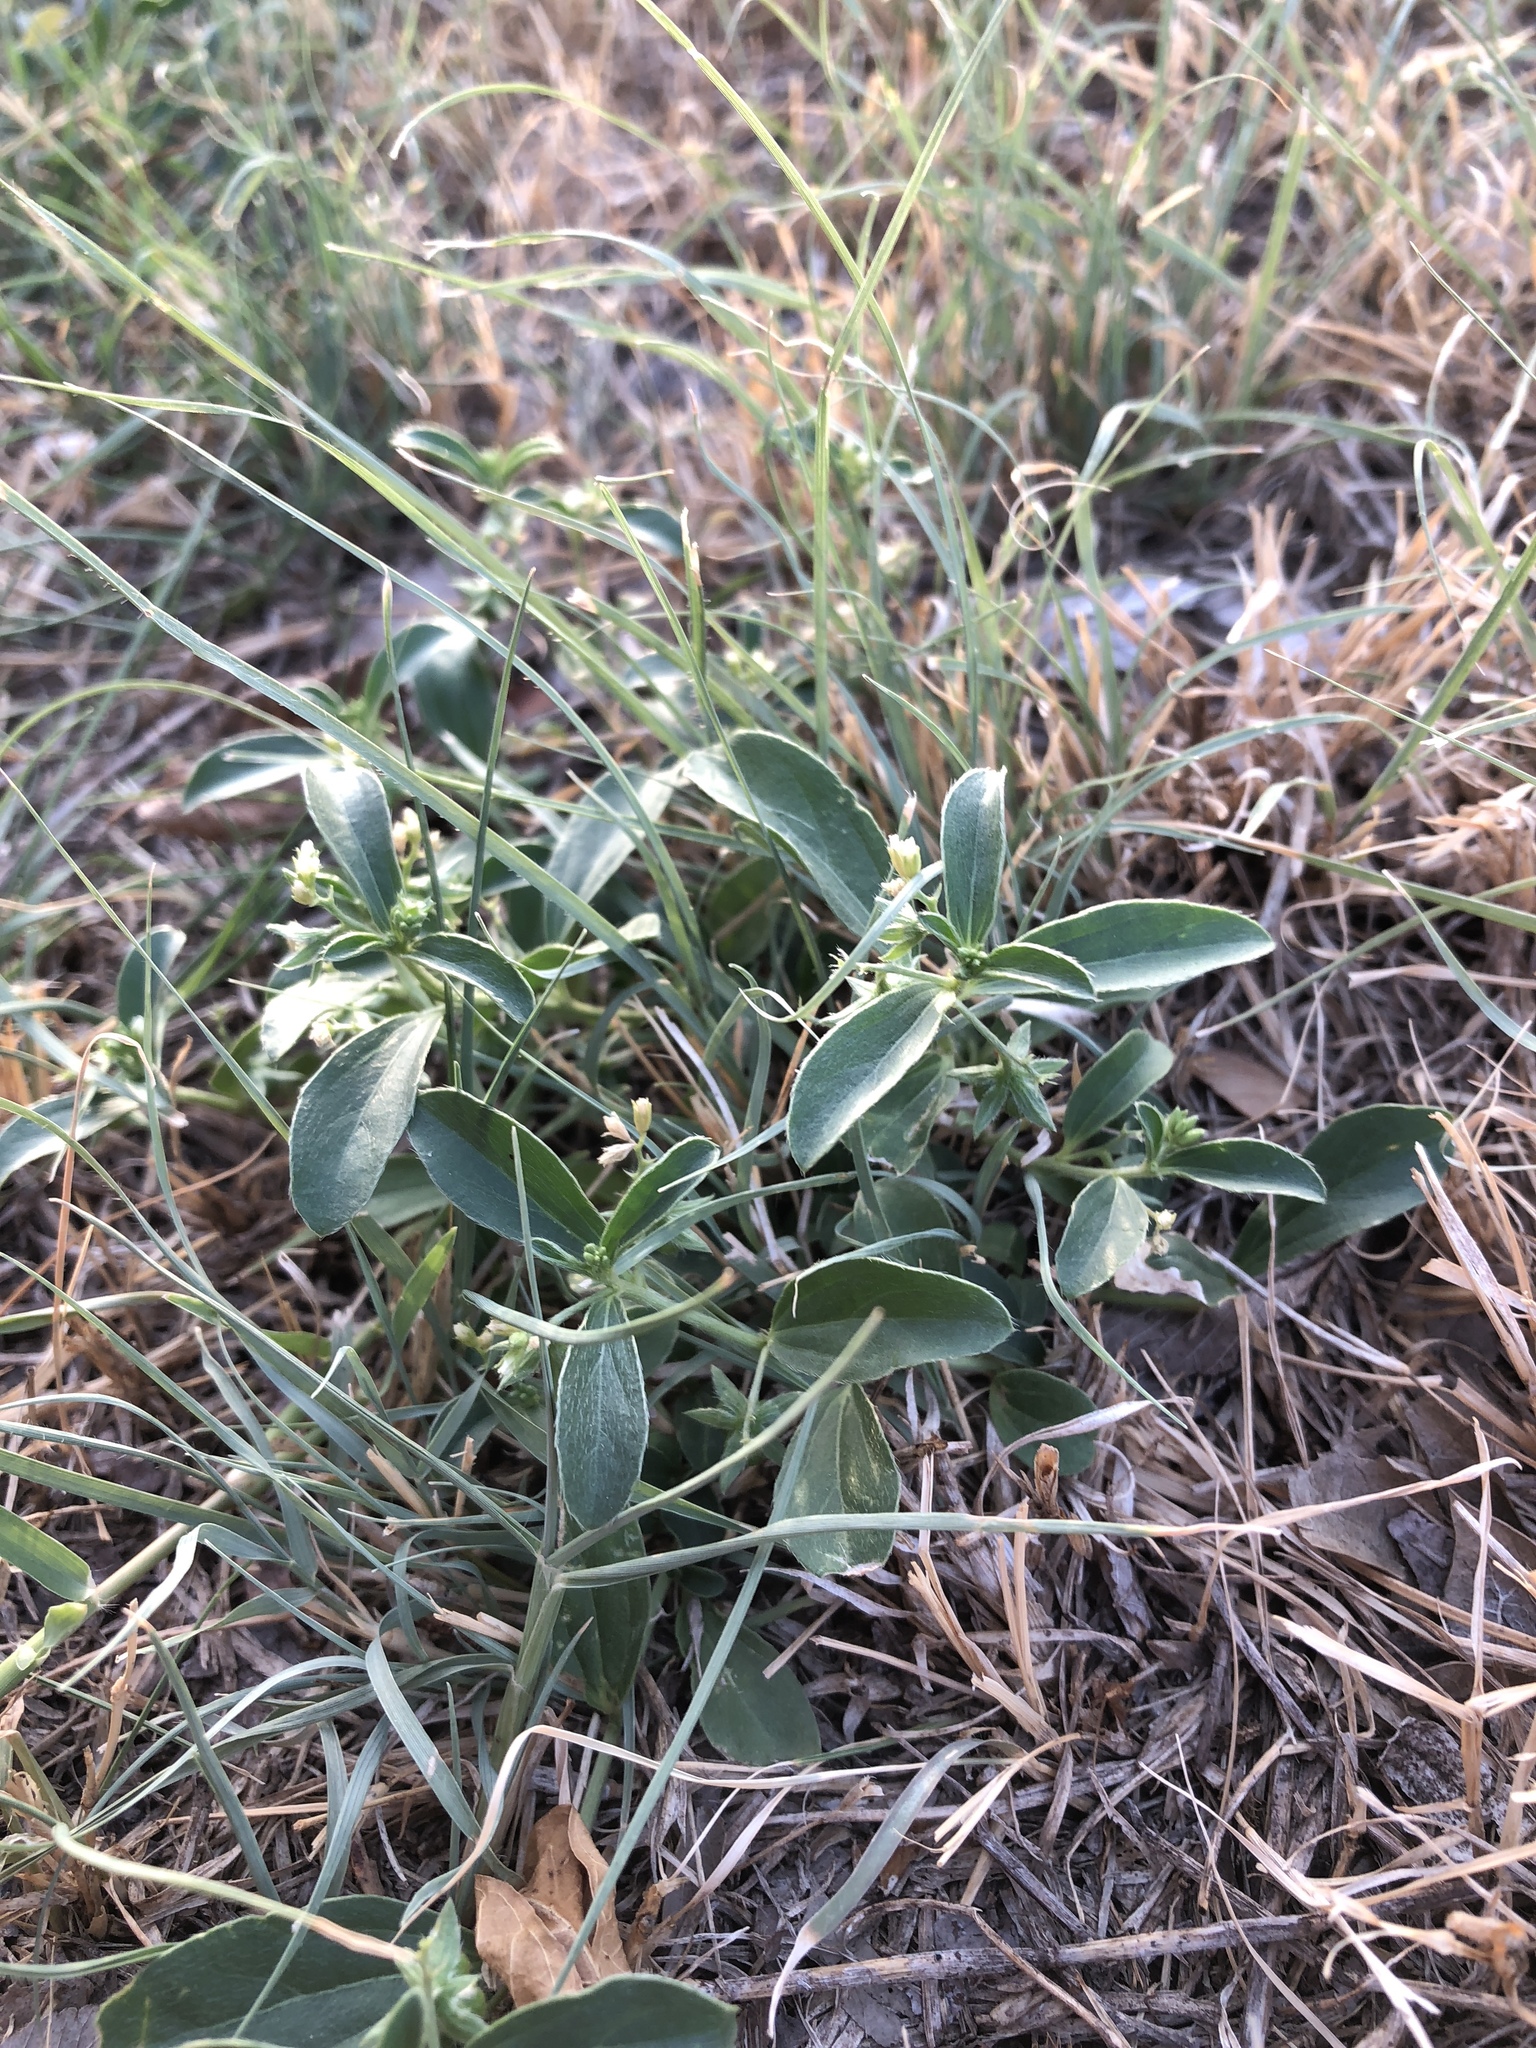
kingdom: Plantae
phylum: Tracheophyta
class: Magnoliopsida
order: Malpighiales
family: Euphorbiaceae
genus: Ditaxis
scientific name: Ditaxis humilis
